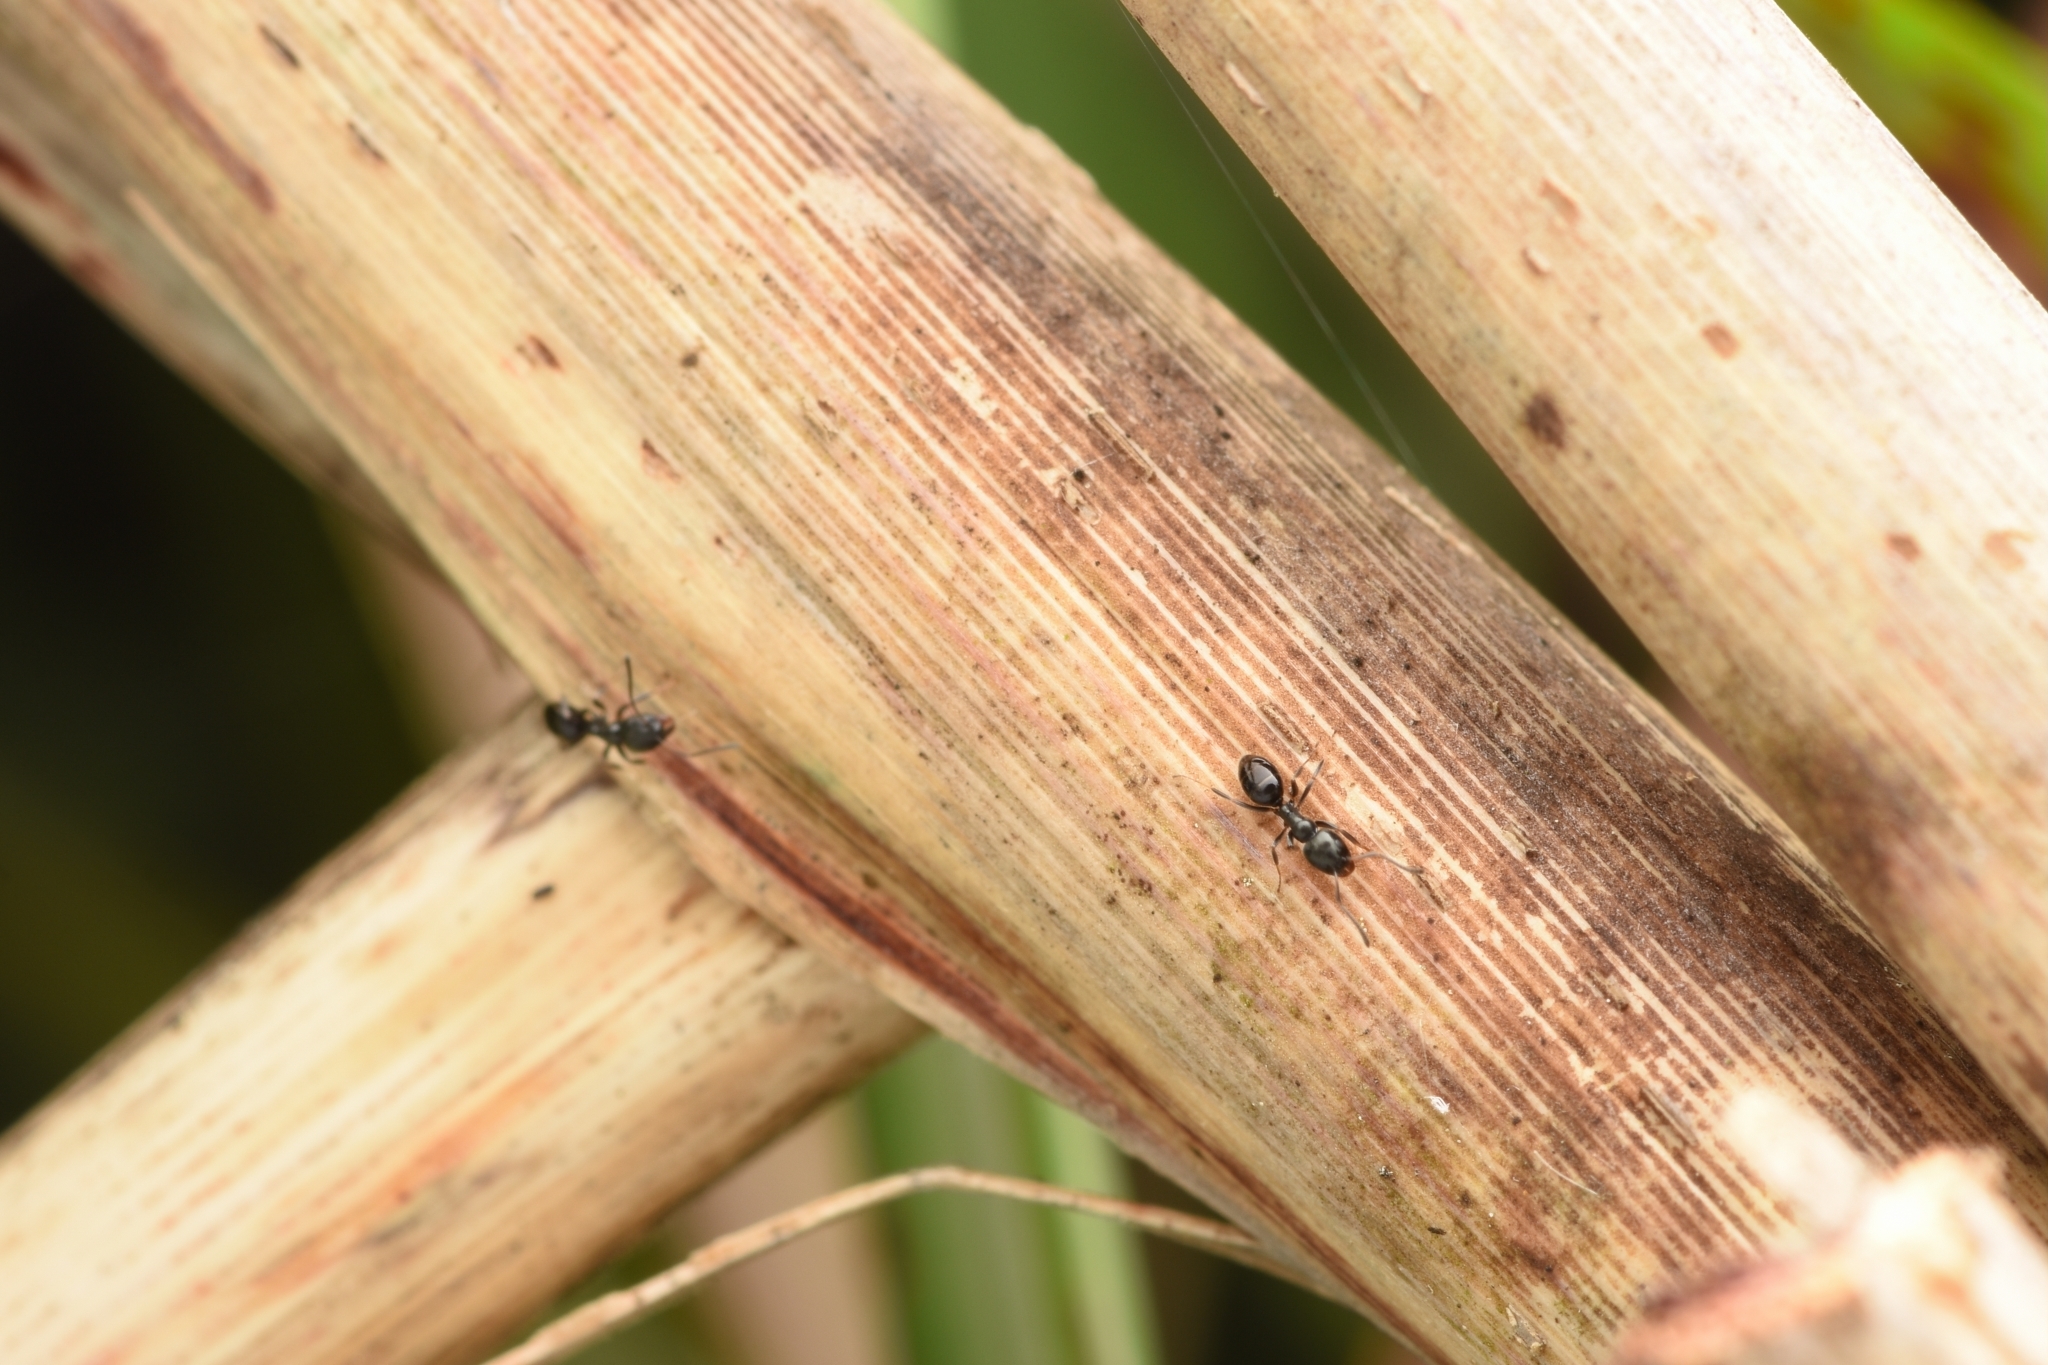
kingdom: Animalia
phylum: Arthropoda
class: Insecta
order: Hymenoptera
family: Formicidae
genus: Ochetellus
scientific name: Ochetellus glaber
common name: Ant
